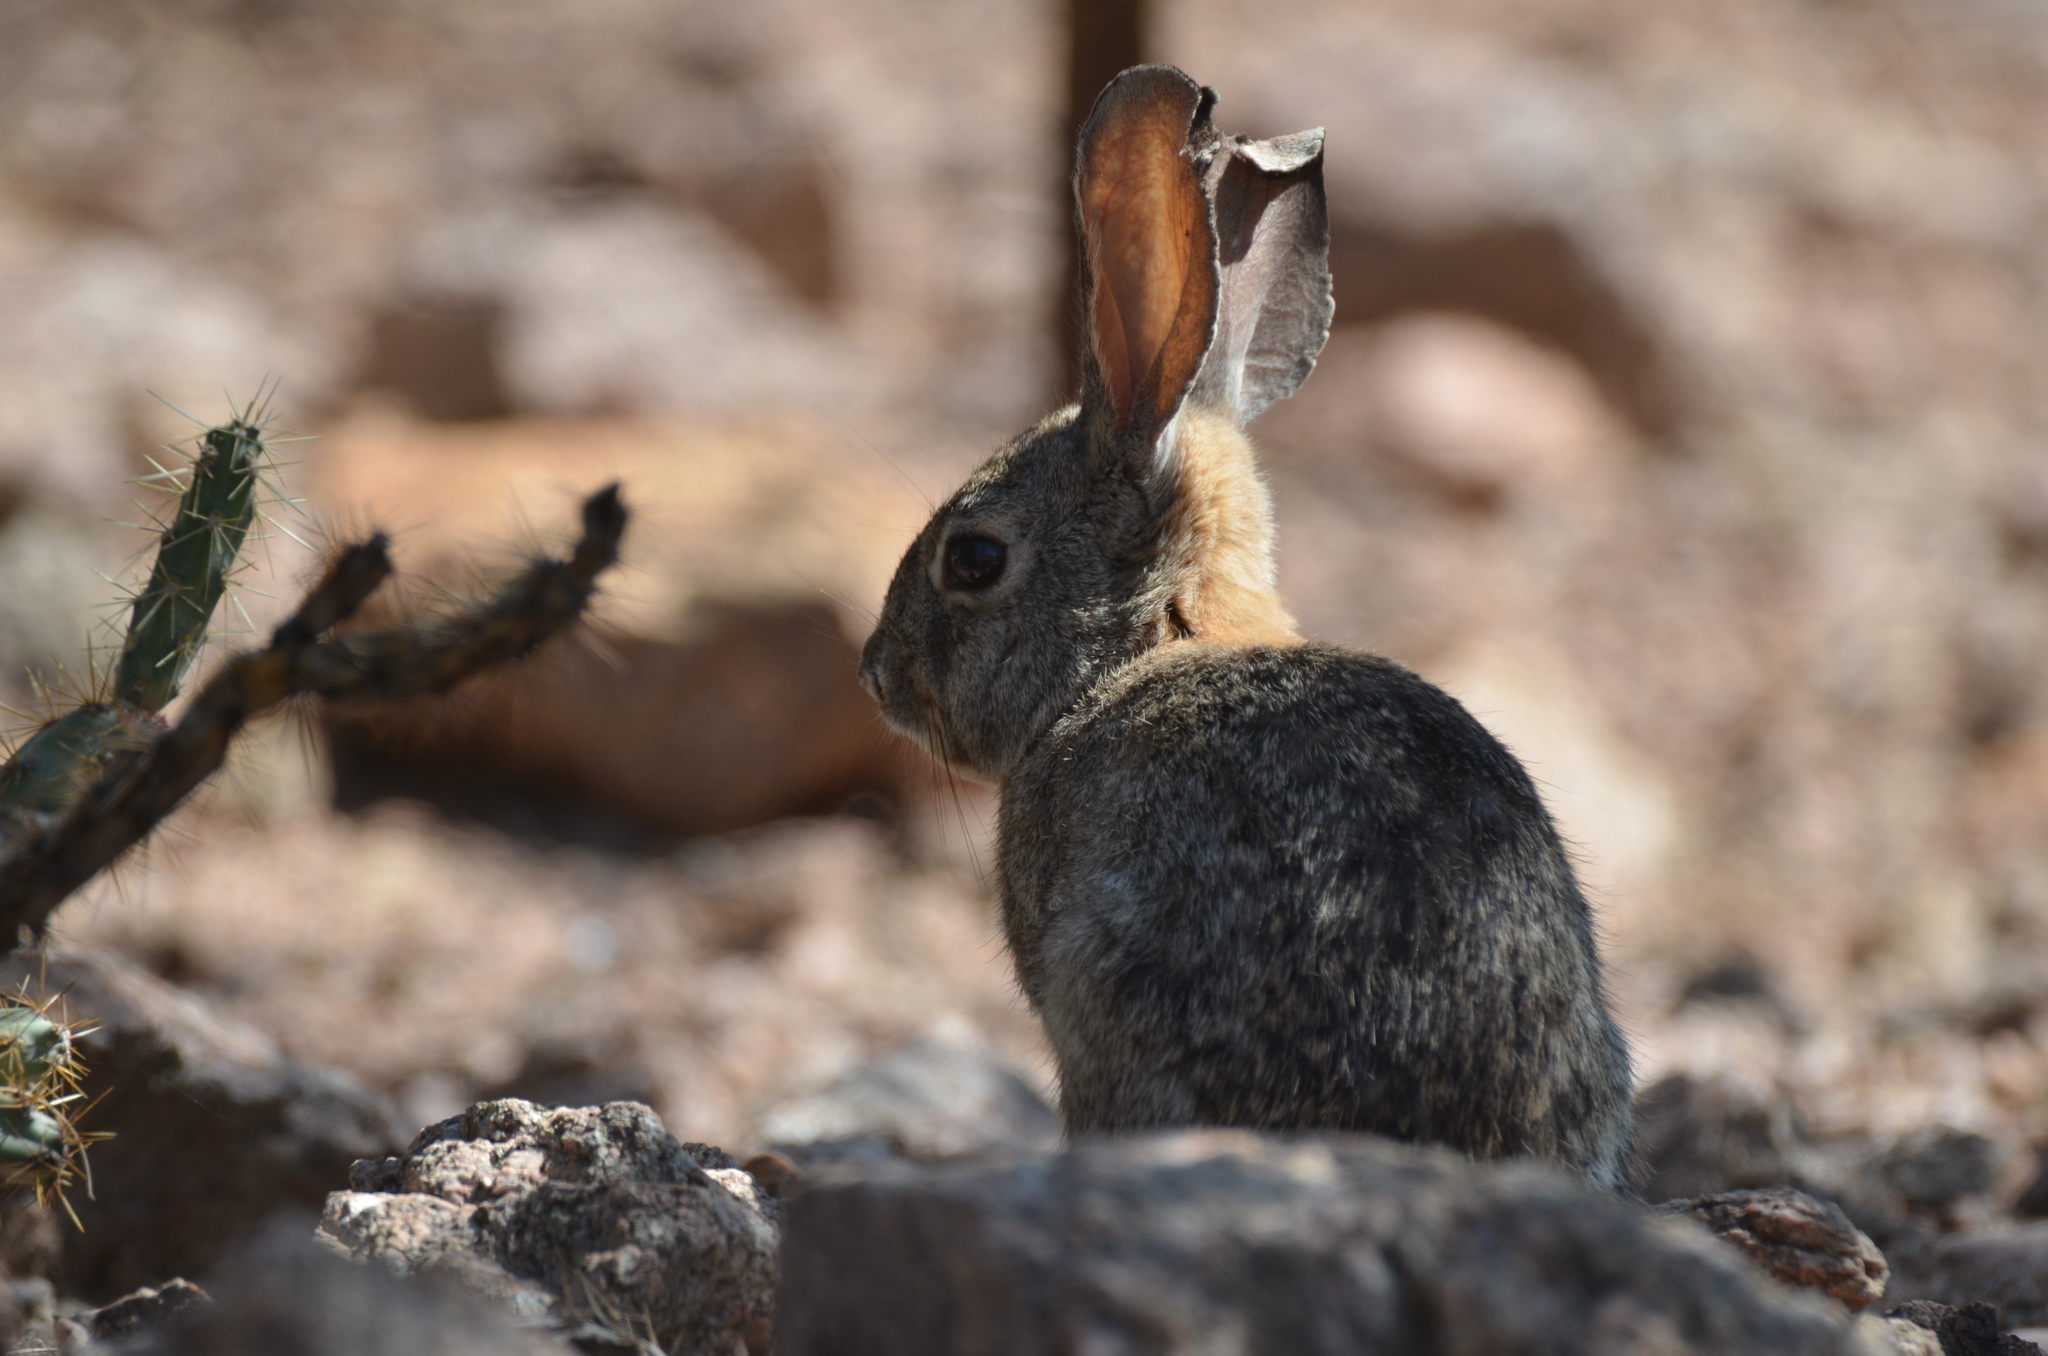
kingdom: Animalia
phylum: Chordata
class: Mammalia
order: Lagomorpha
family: Leporidae
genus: Sylvilagus
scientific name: Sylvilagus audubonii
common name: Desert cottontail
